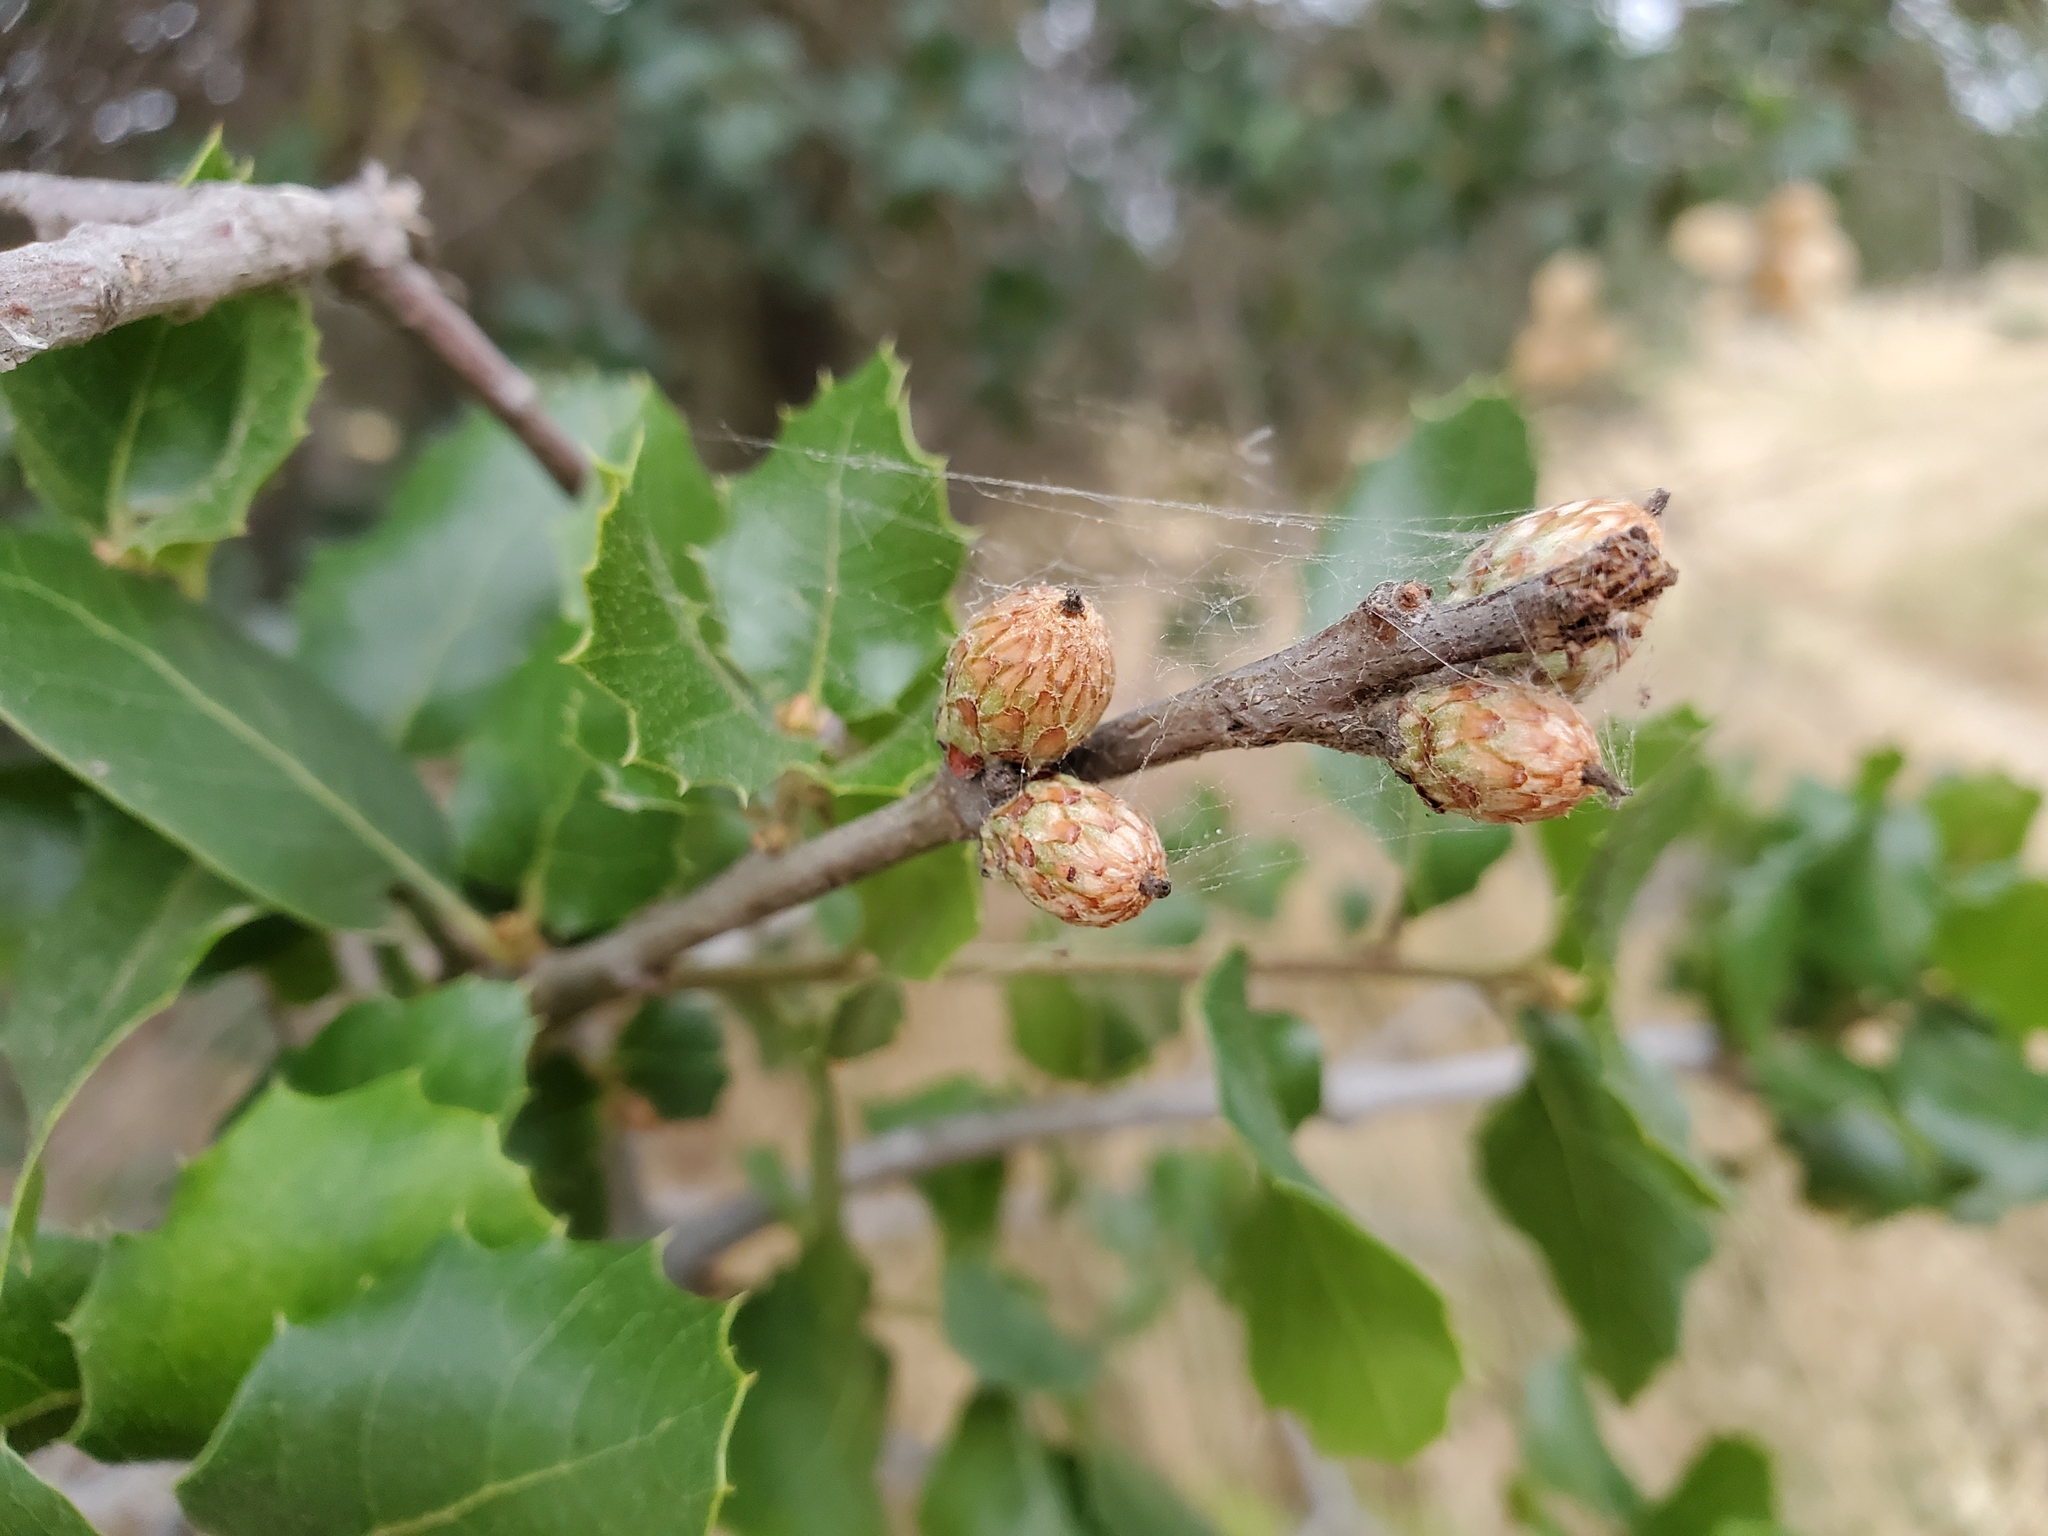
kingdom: Plantae
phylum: Tracheophyta
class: Magnoliopsida
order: Fagales
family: Fagaceae
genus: Quercus
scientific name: Quercus wislizeni
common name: Interior live oak
